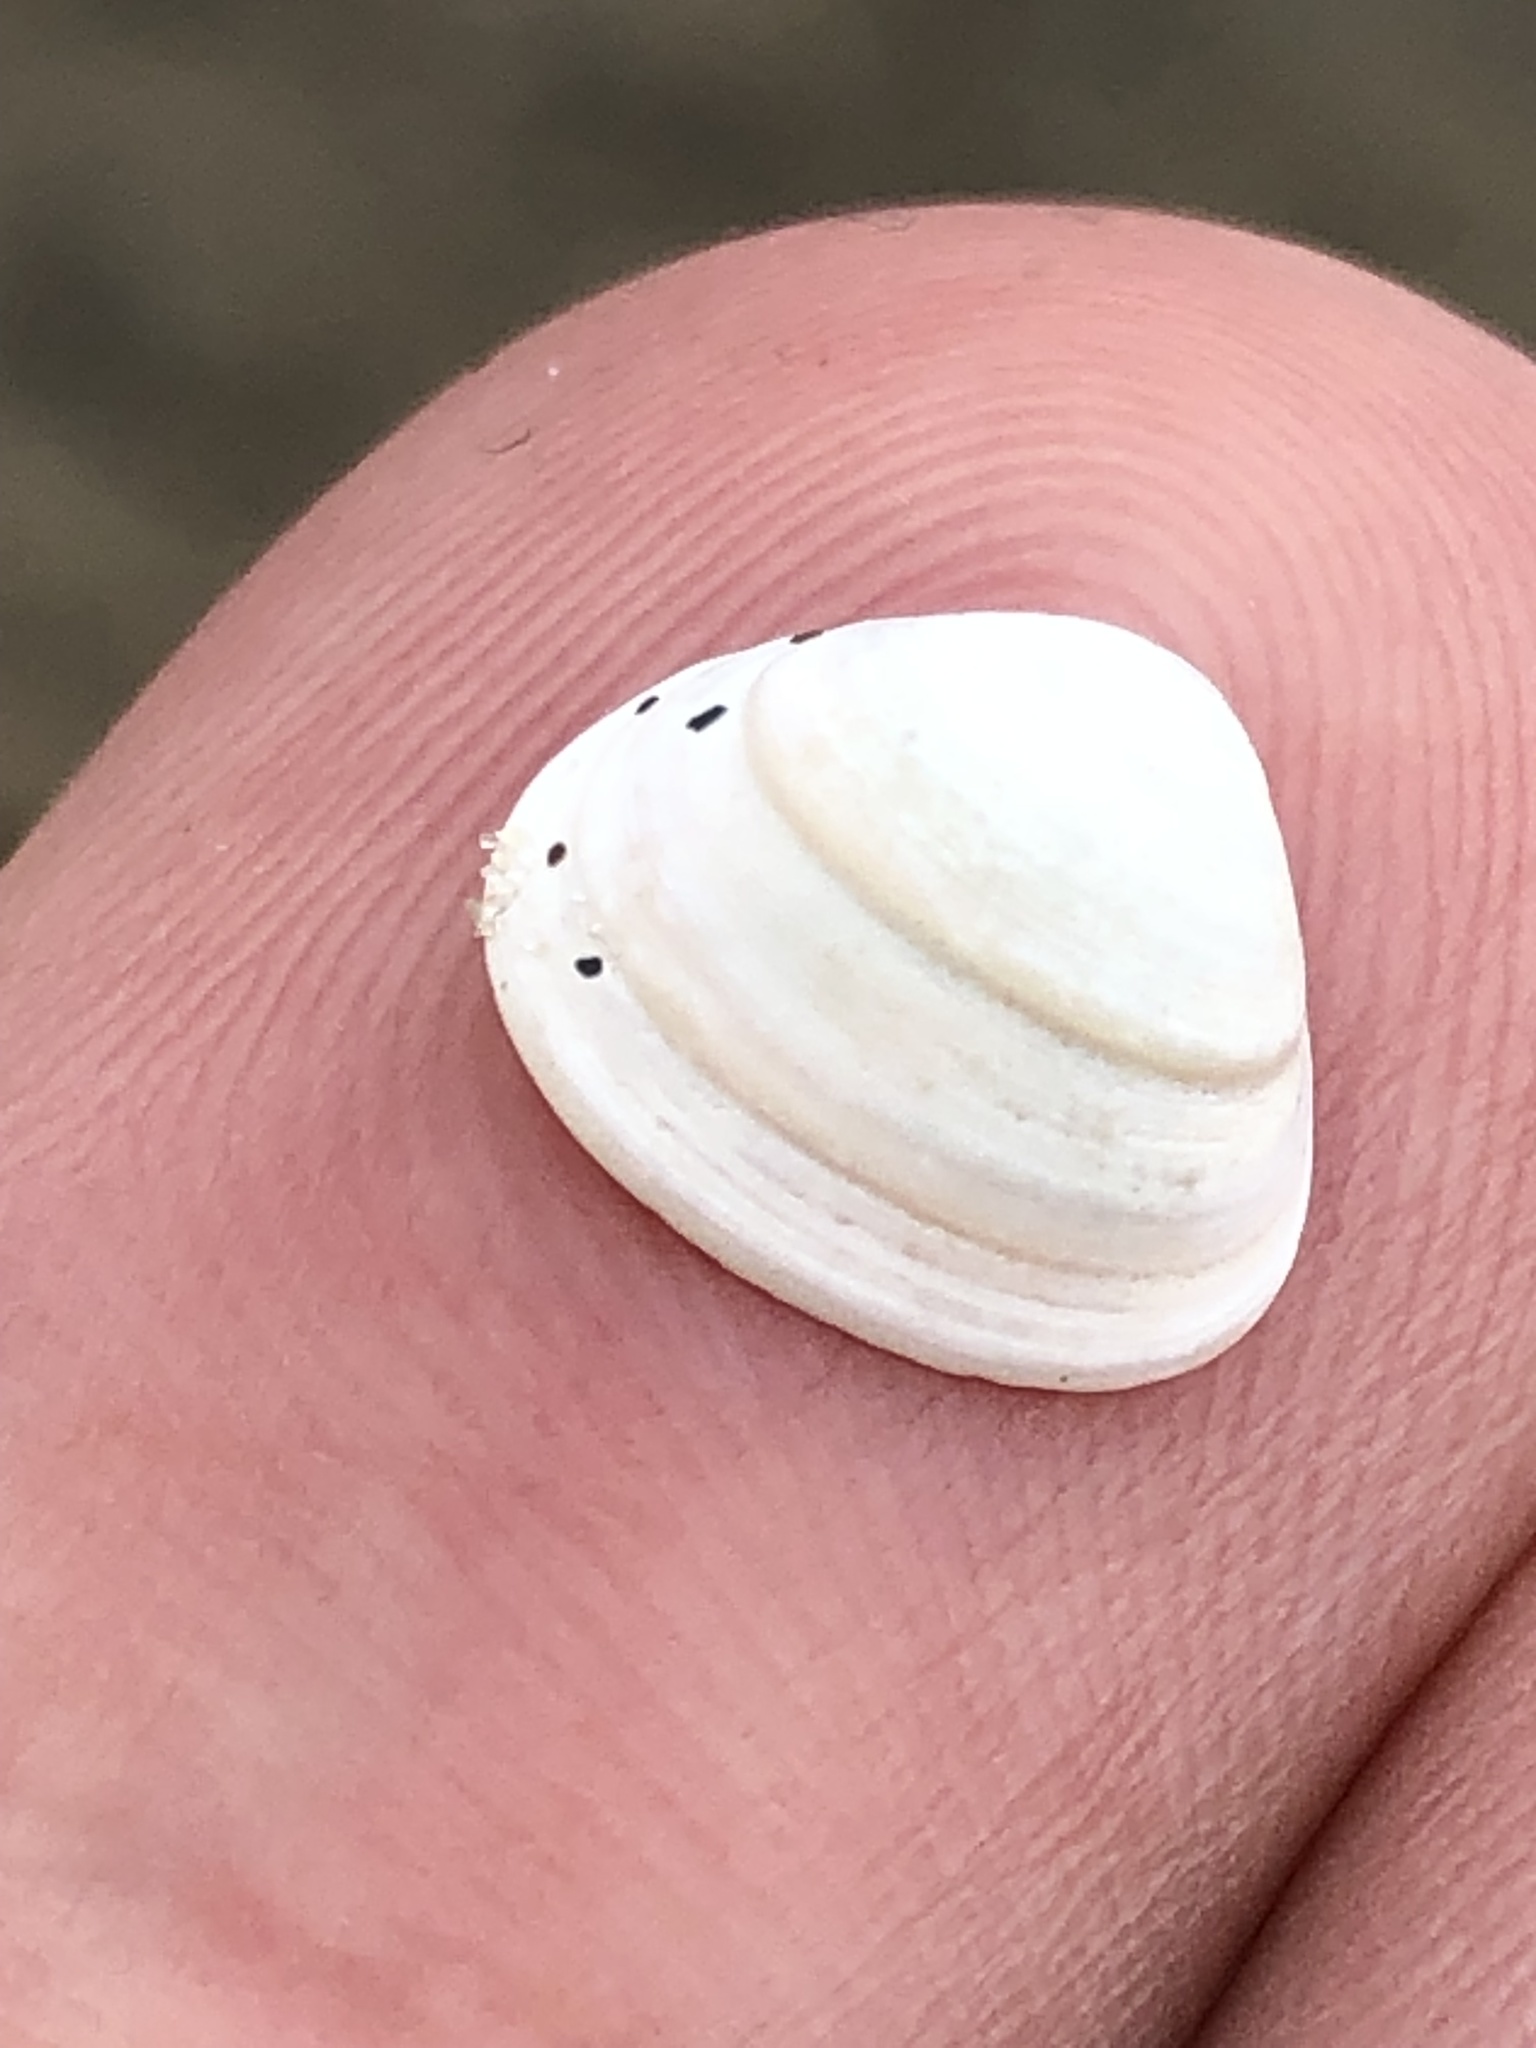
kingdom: Animalia
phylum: Mollusca
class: Bivalvia
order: Sphaeriida
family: Sphaeriidae
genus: Sphaerium
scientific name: Sphaerium striatinum
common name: Striated fingernailclam
